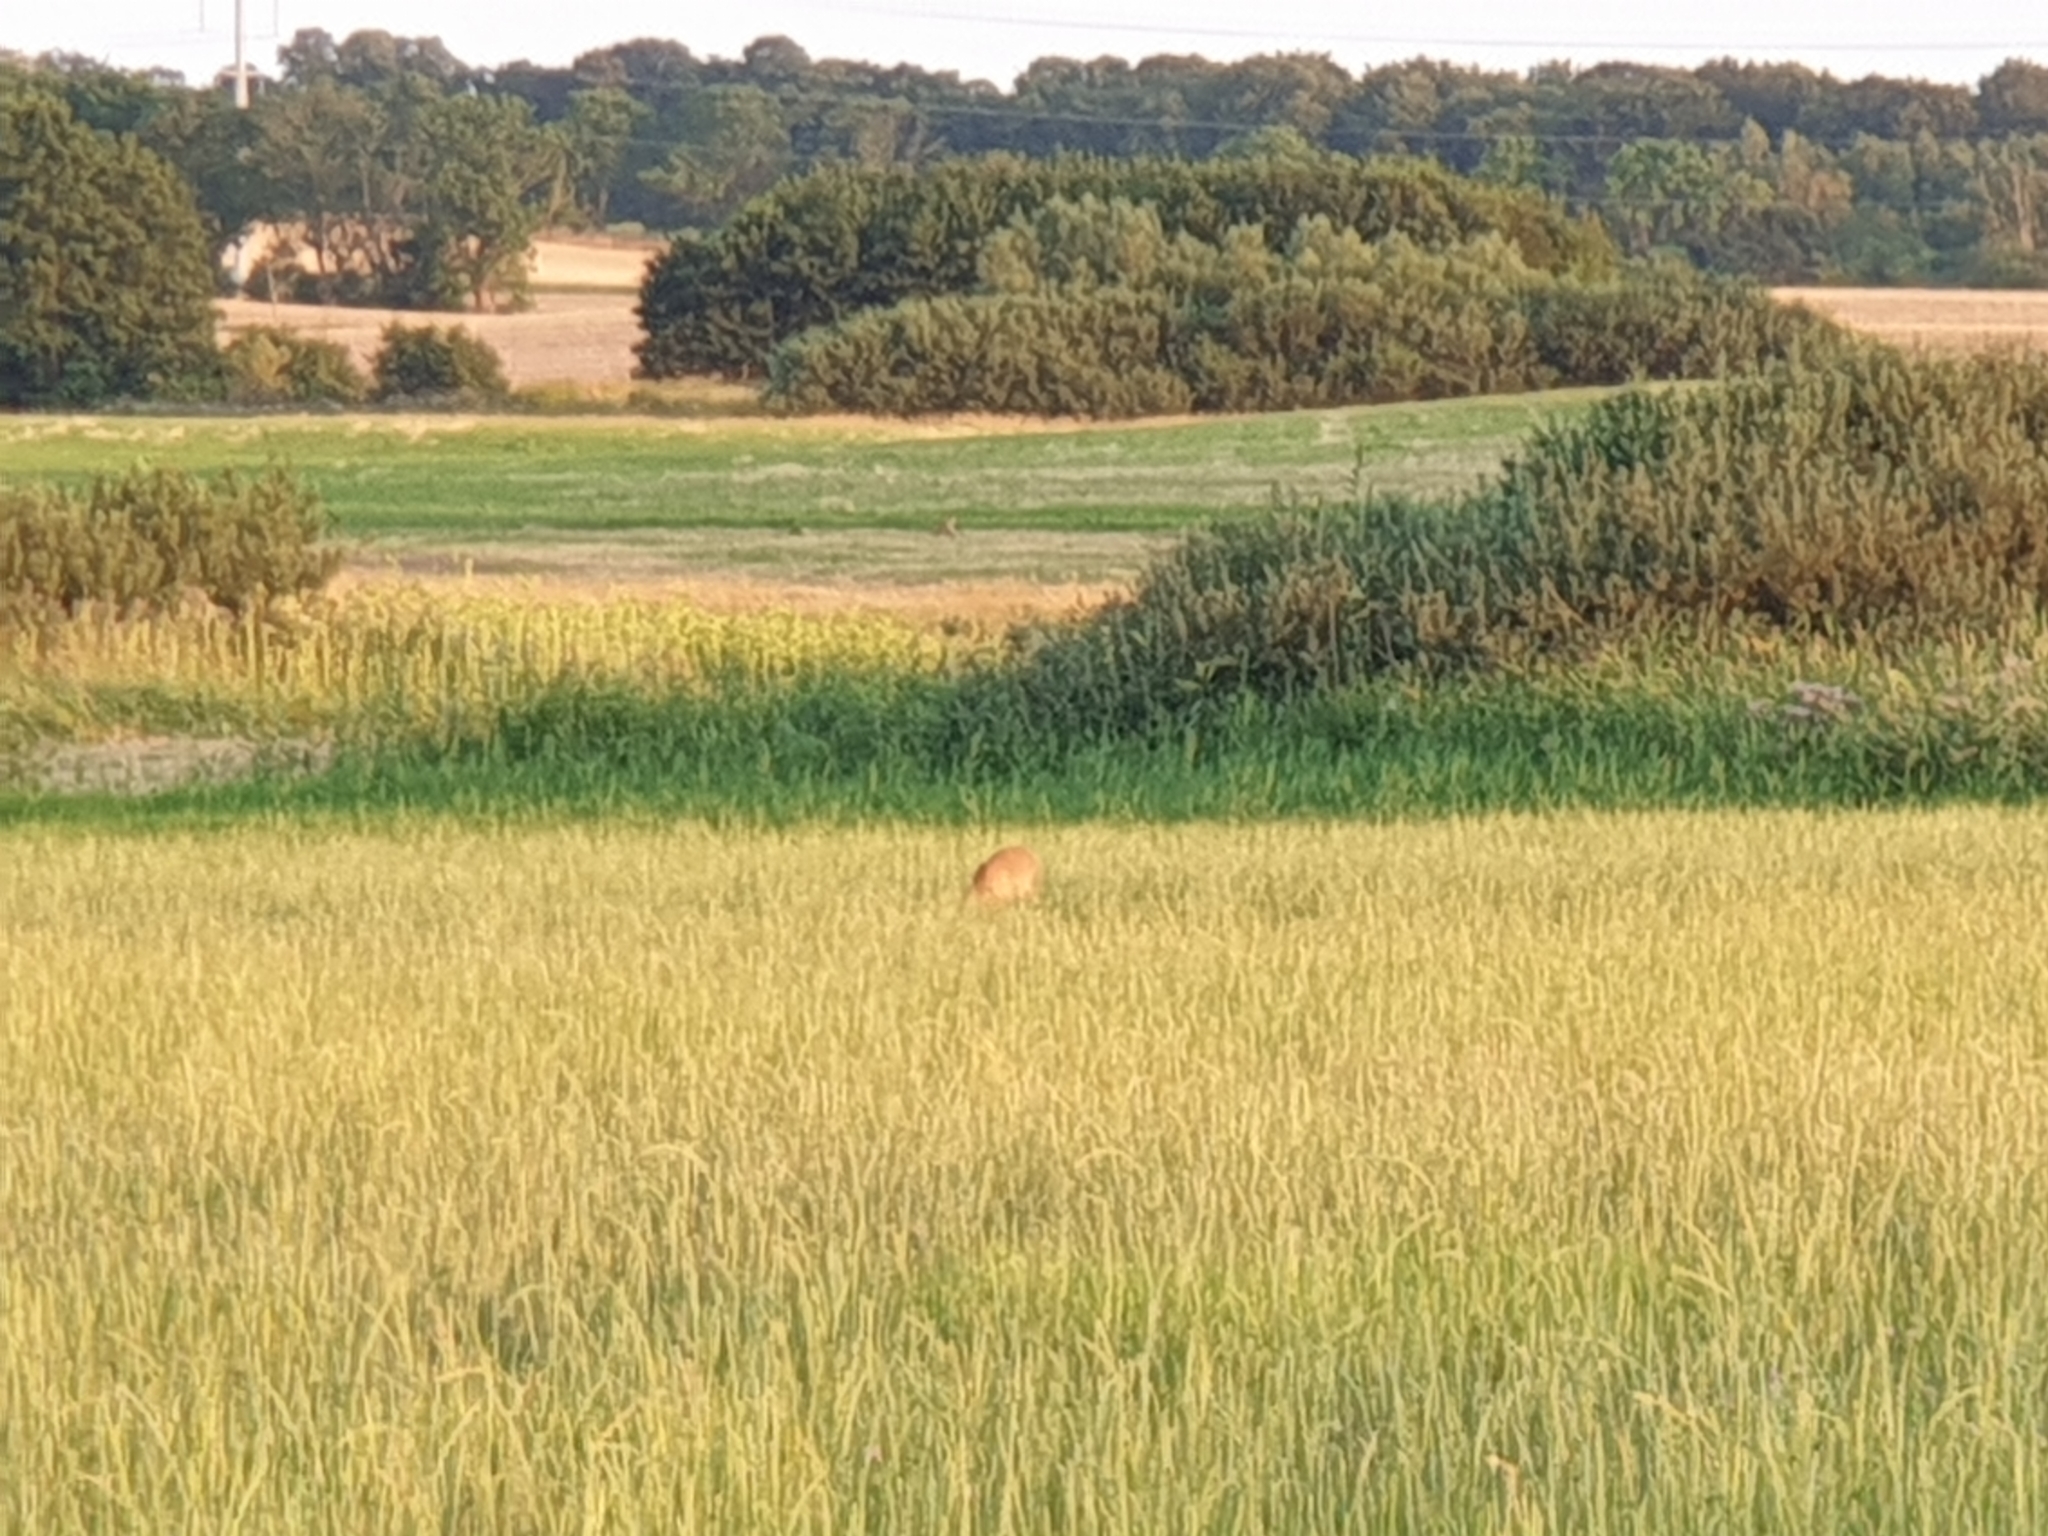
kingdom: Animalia
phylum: Chordata
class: Mammalia
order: Artiodactyla
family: Cervidae
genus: Capreolus
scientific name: Capreolus capreolus
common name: Western roe deer
